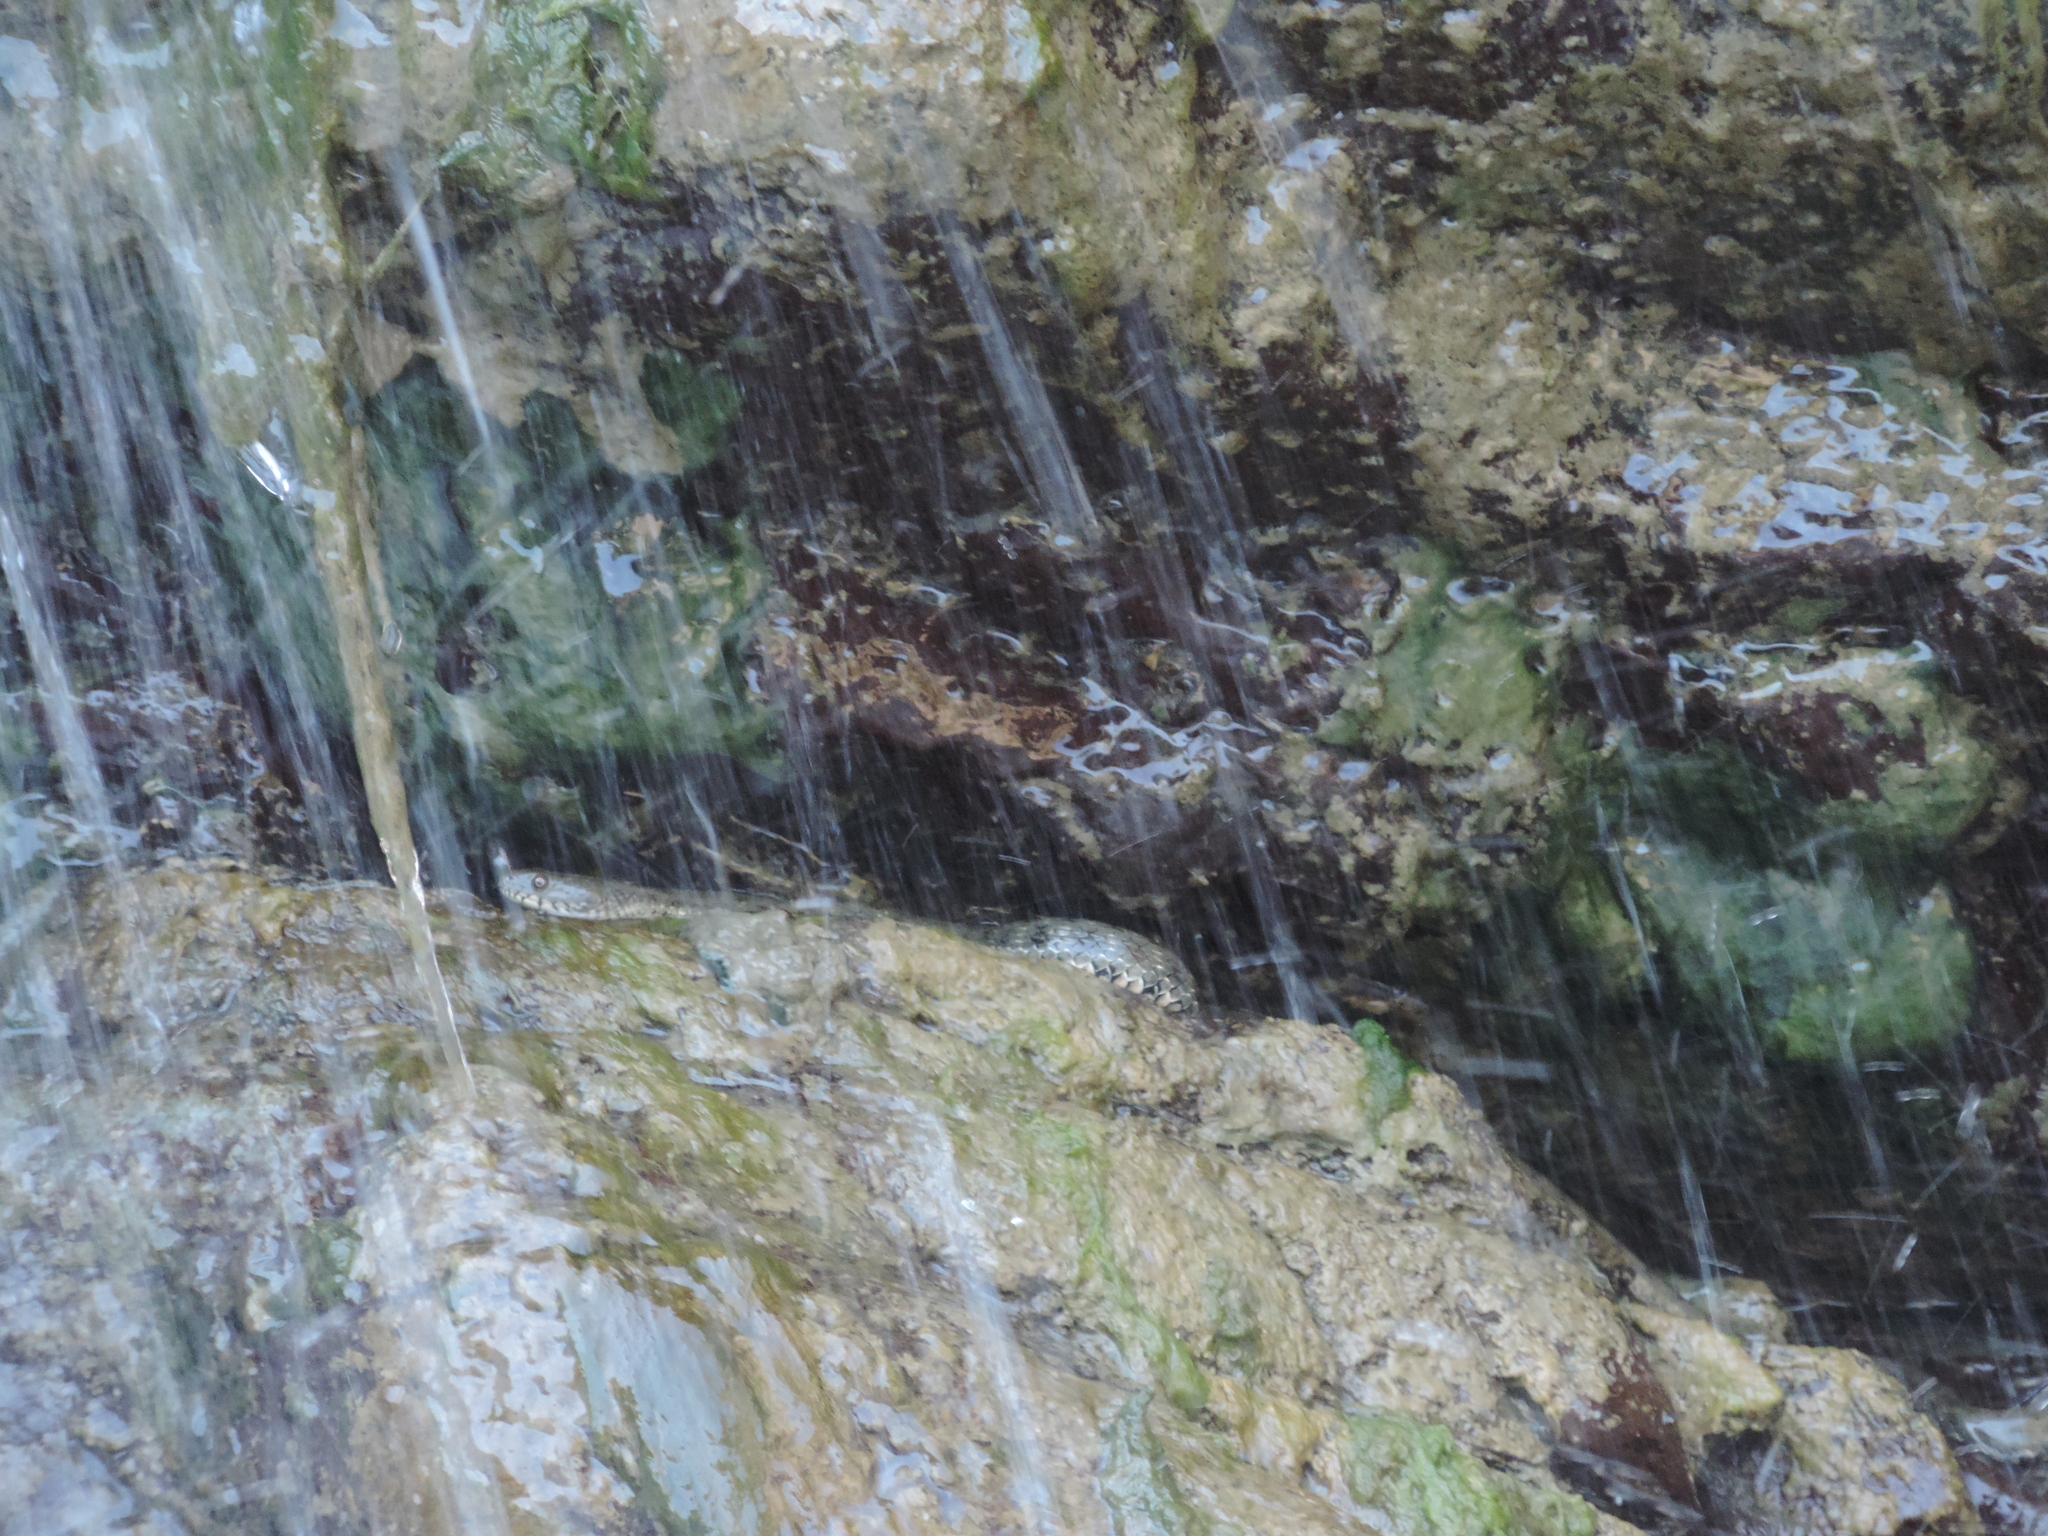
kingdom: Animalia
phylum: Chordata
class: Squamata
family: Colubridae
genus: Natrix
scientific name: Natrix tessellata
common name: Dice snake
